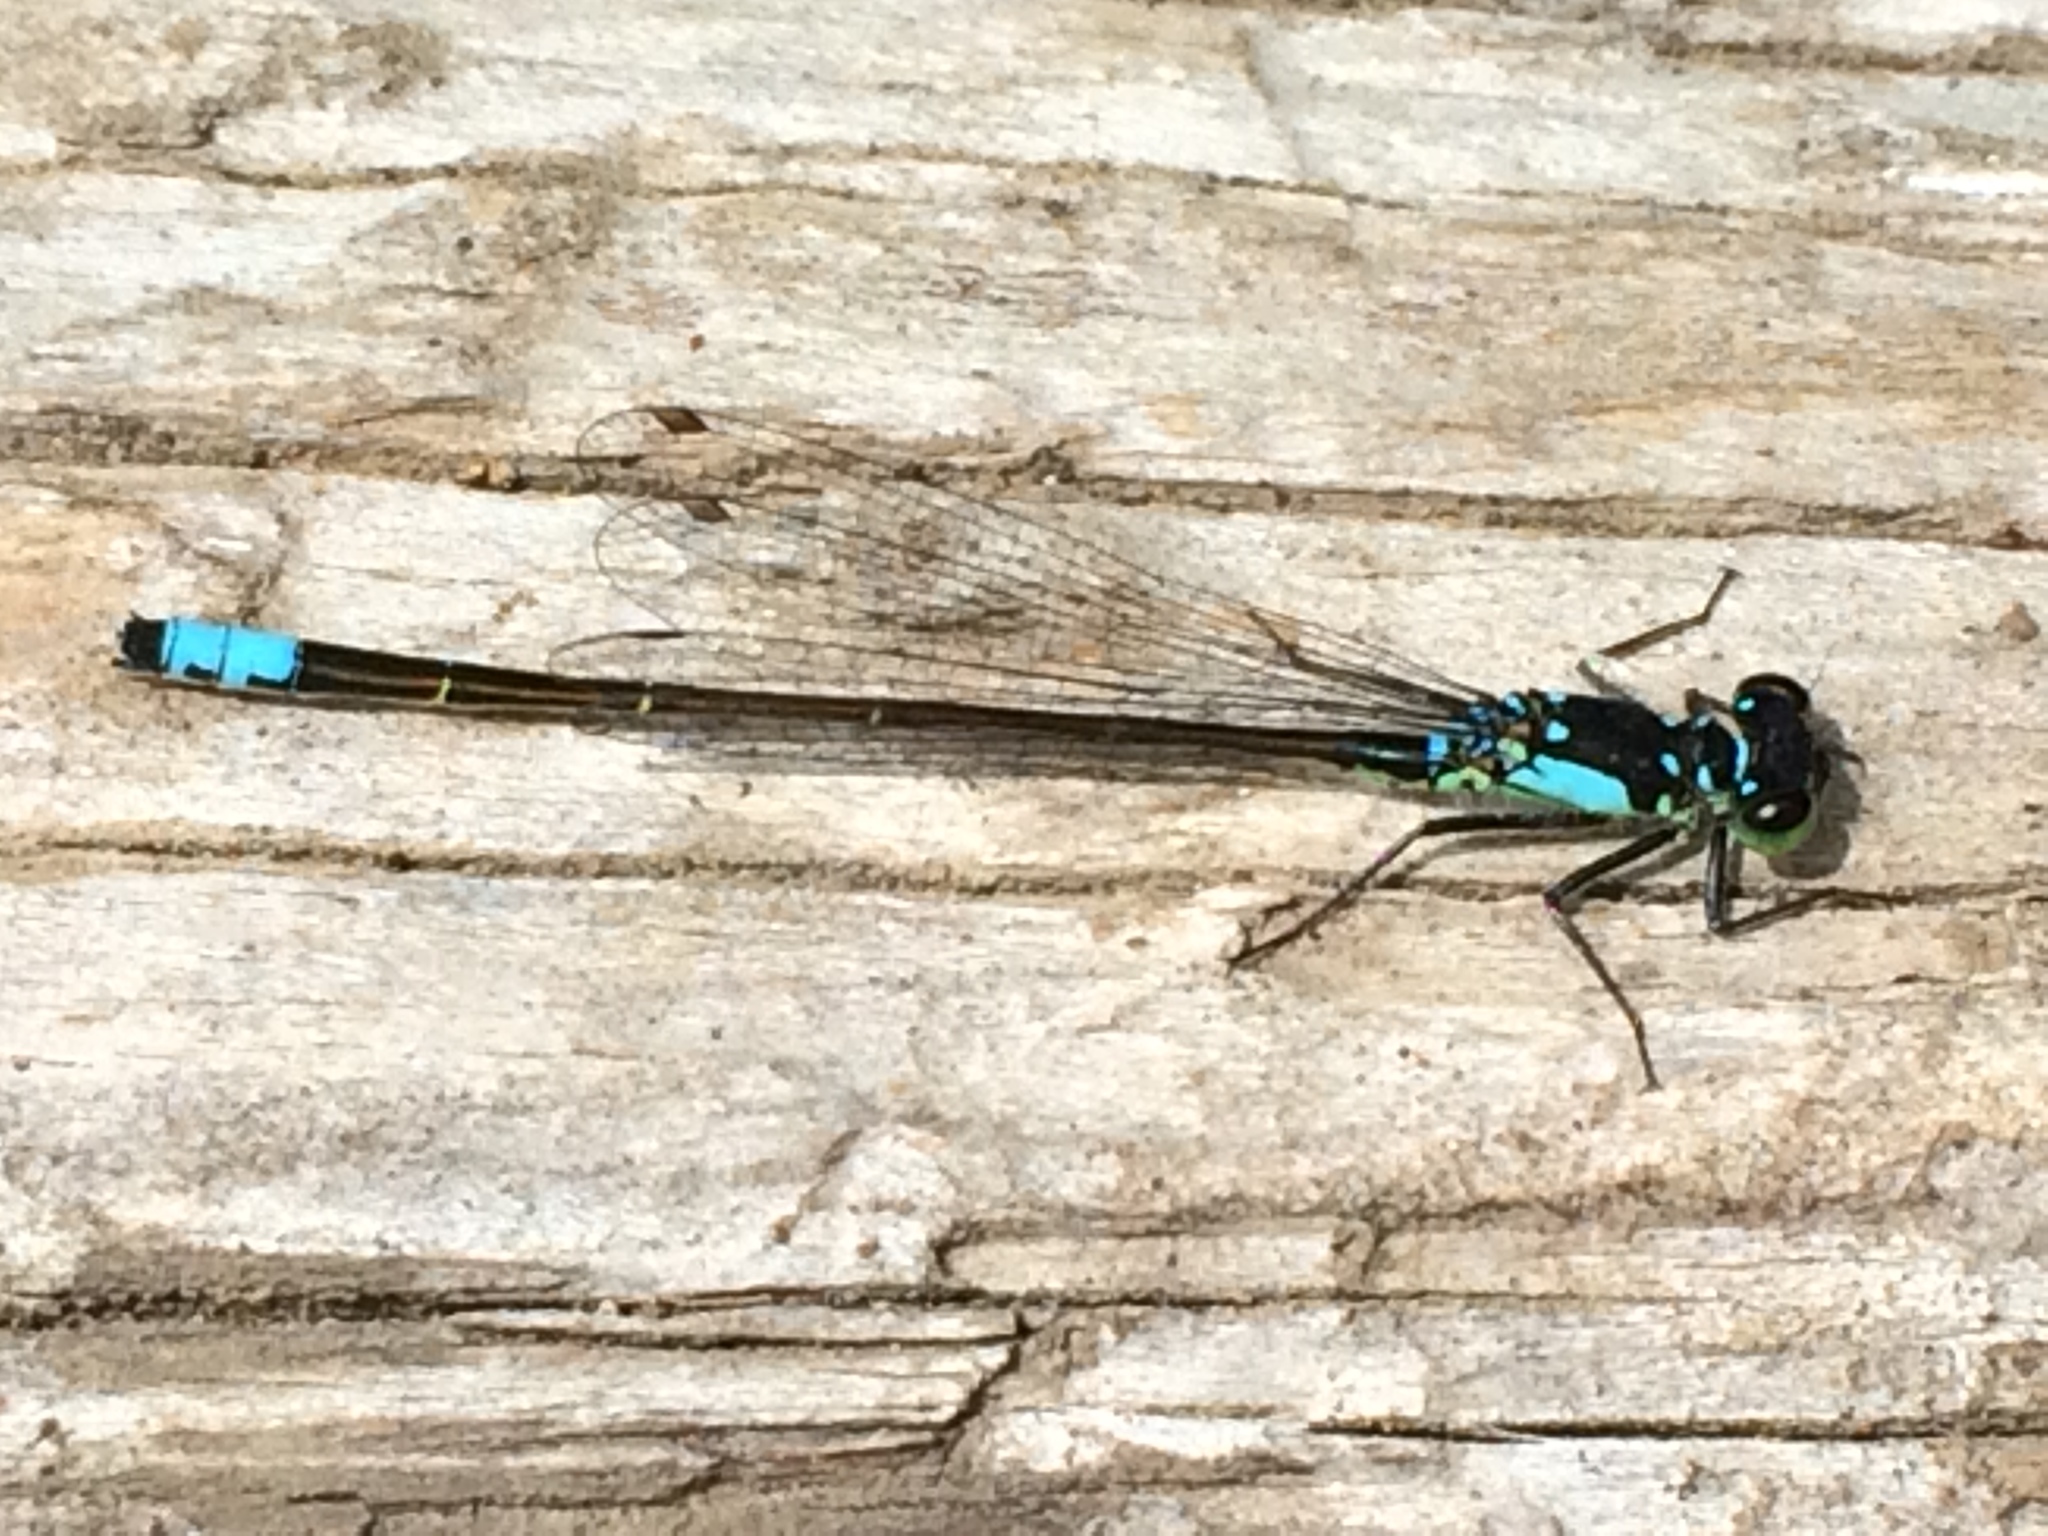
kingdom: Animalia
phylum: Arthropoda
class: Insecta
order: Odonata
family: Coenagrionidae
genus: Ischnura
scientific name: Ischnura cervula
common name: Pacific forktail
